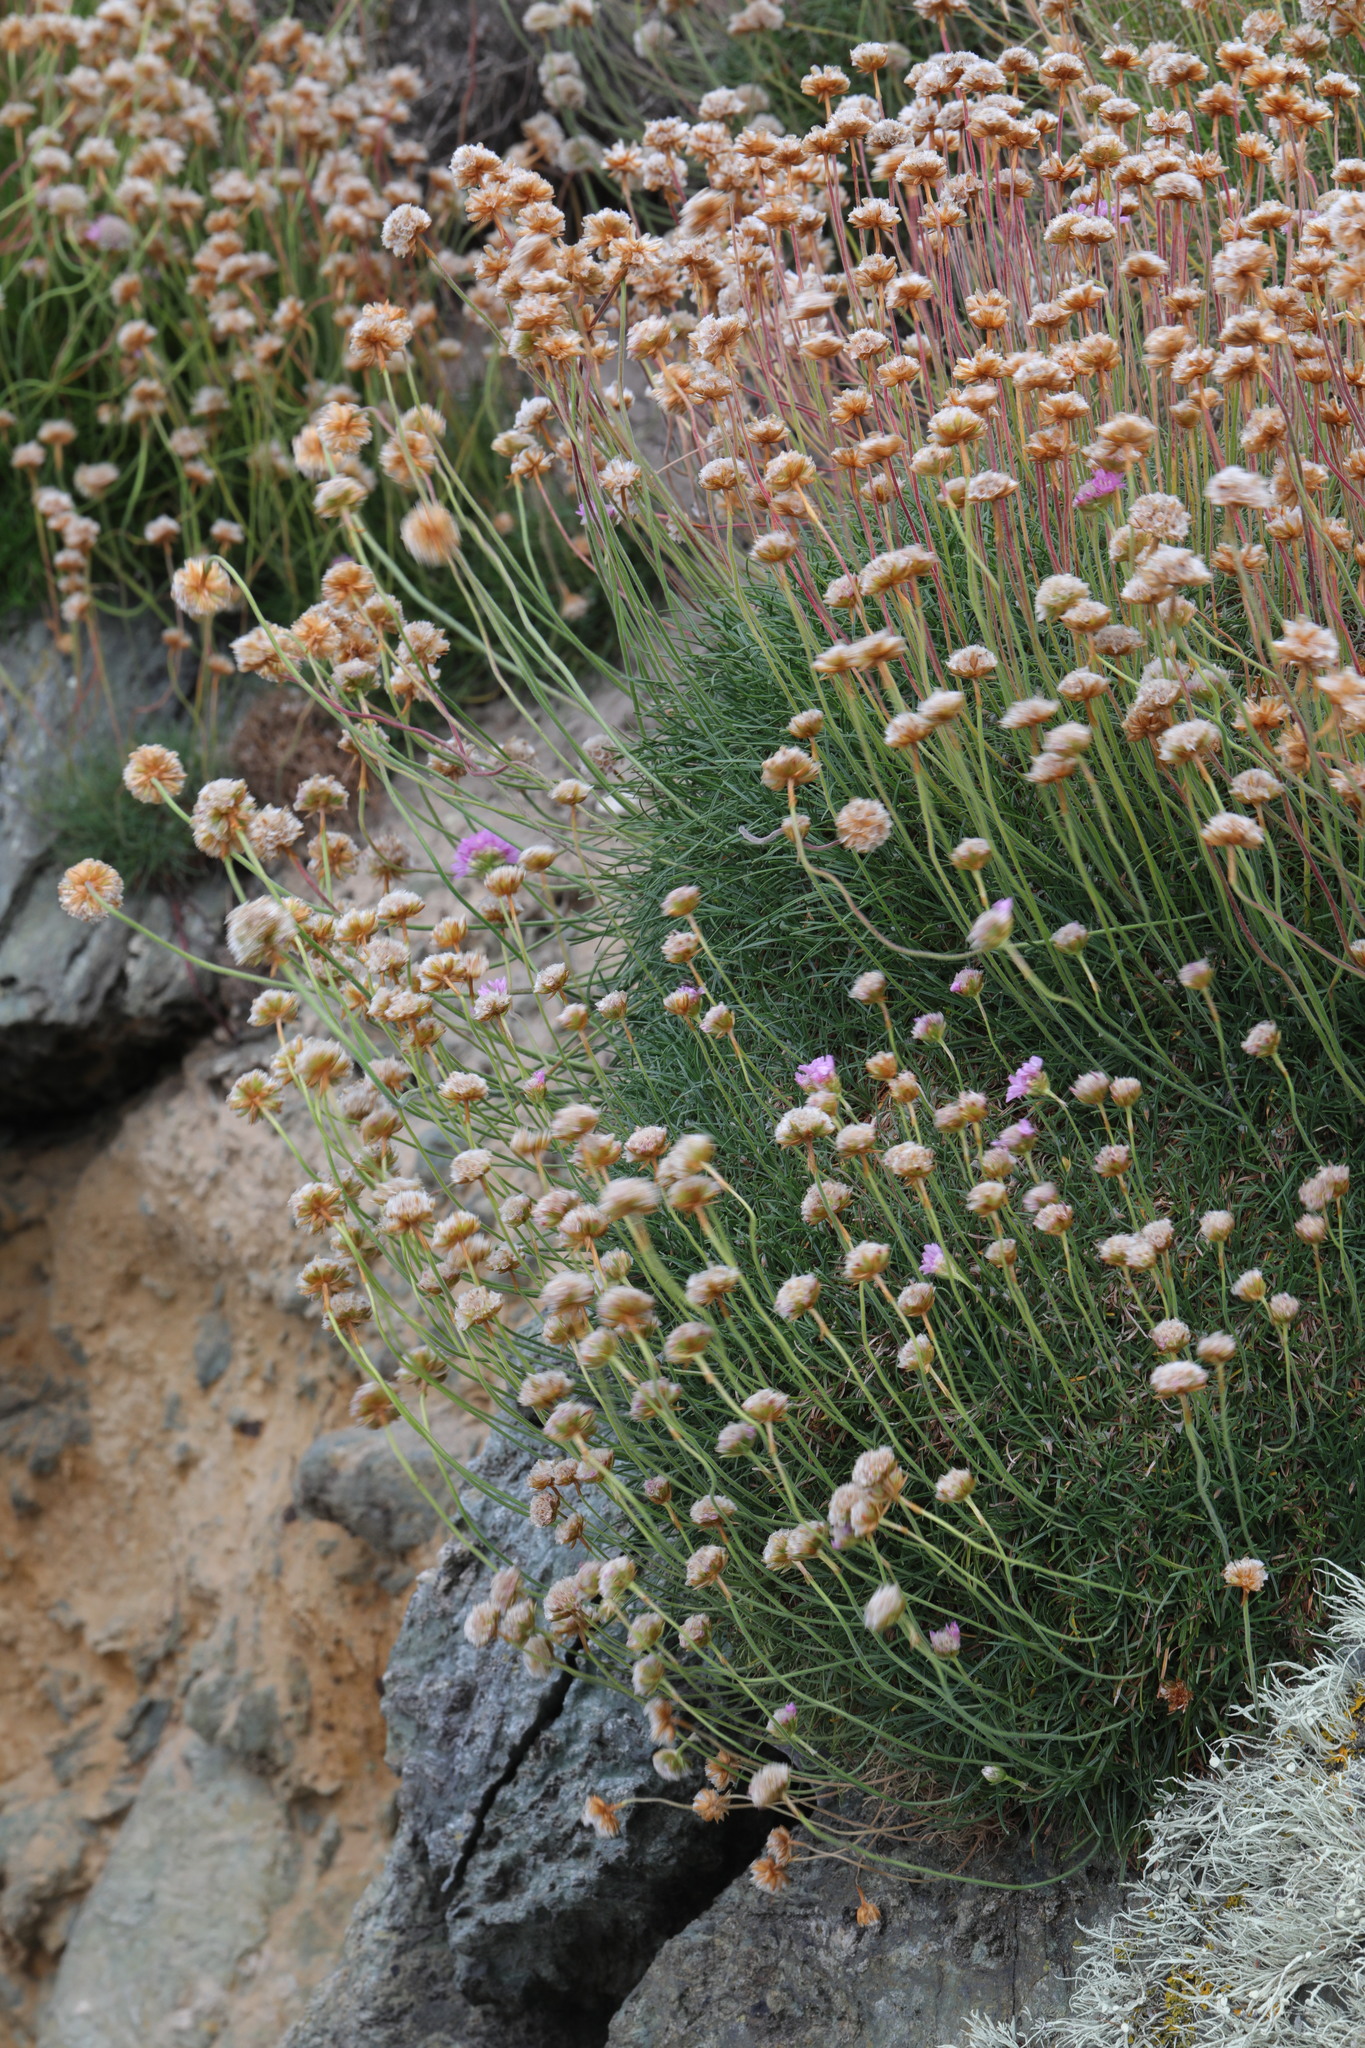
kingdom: Plantae
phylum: Tracheophyta
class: Magnoliopsida
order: Caryophyllales
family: Plumbaginaceae
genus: Armeria
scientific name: Armeria maritima
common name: Thrift
